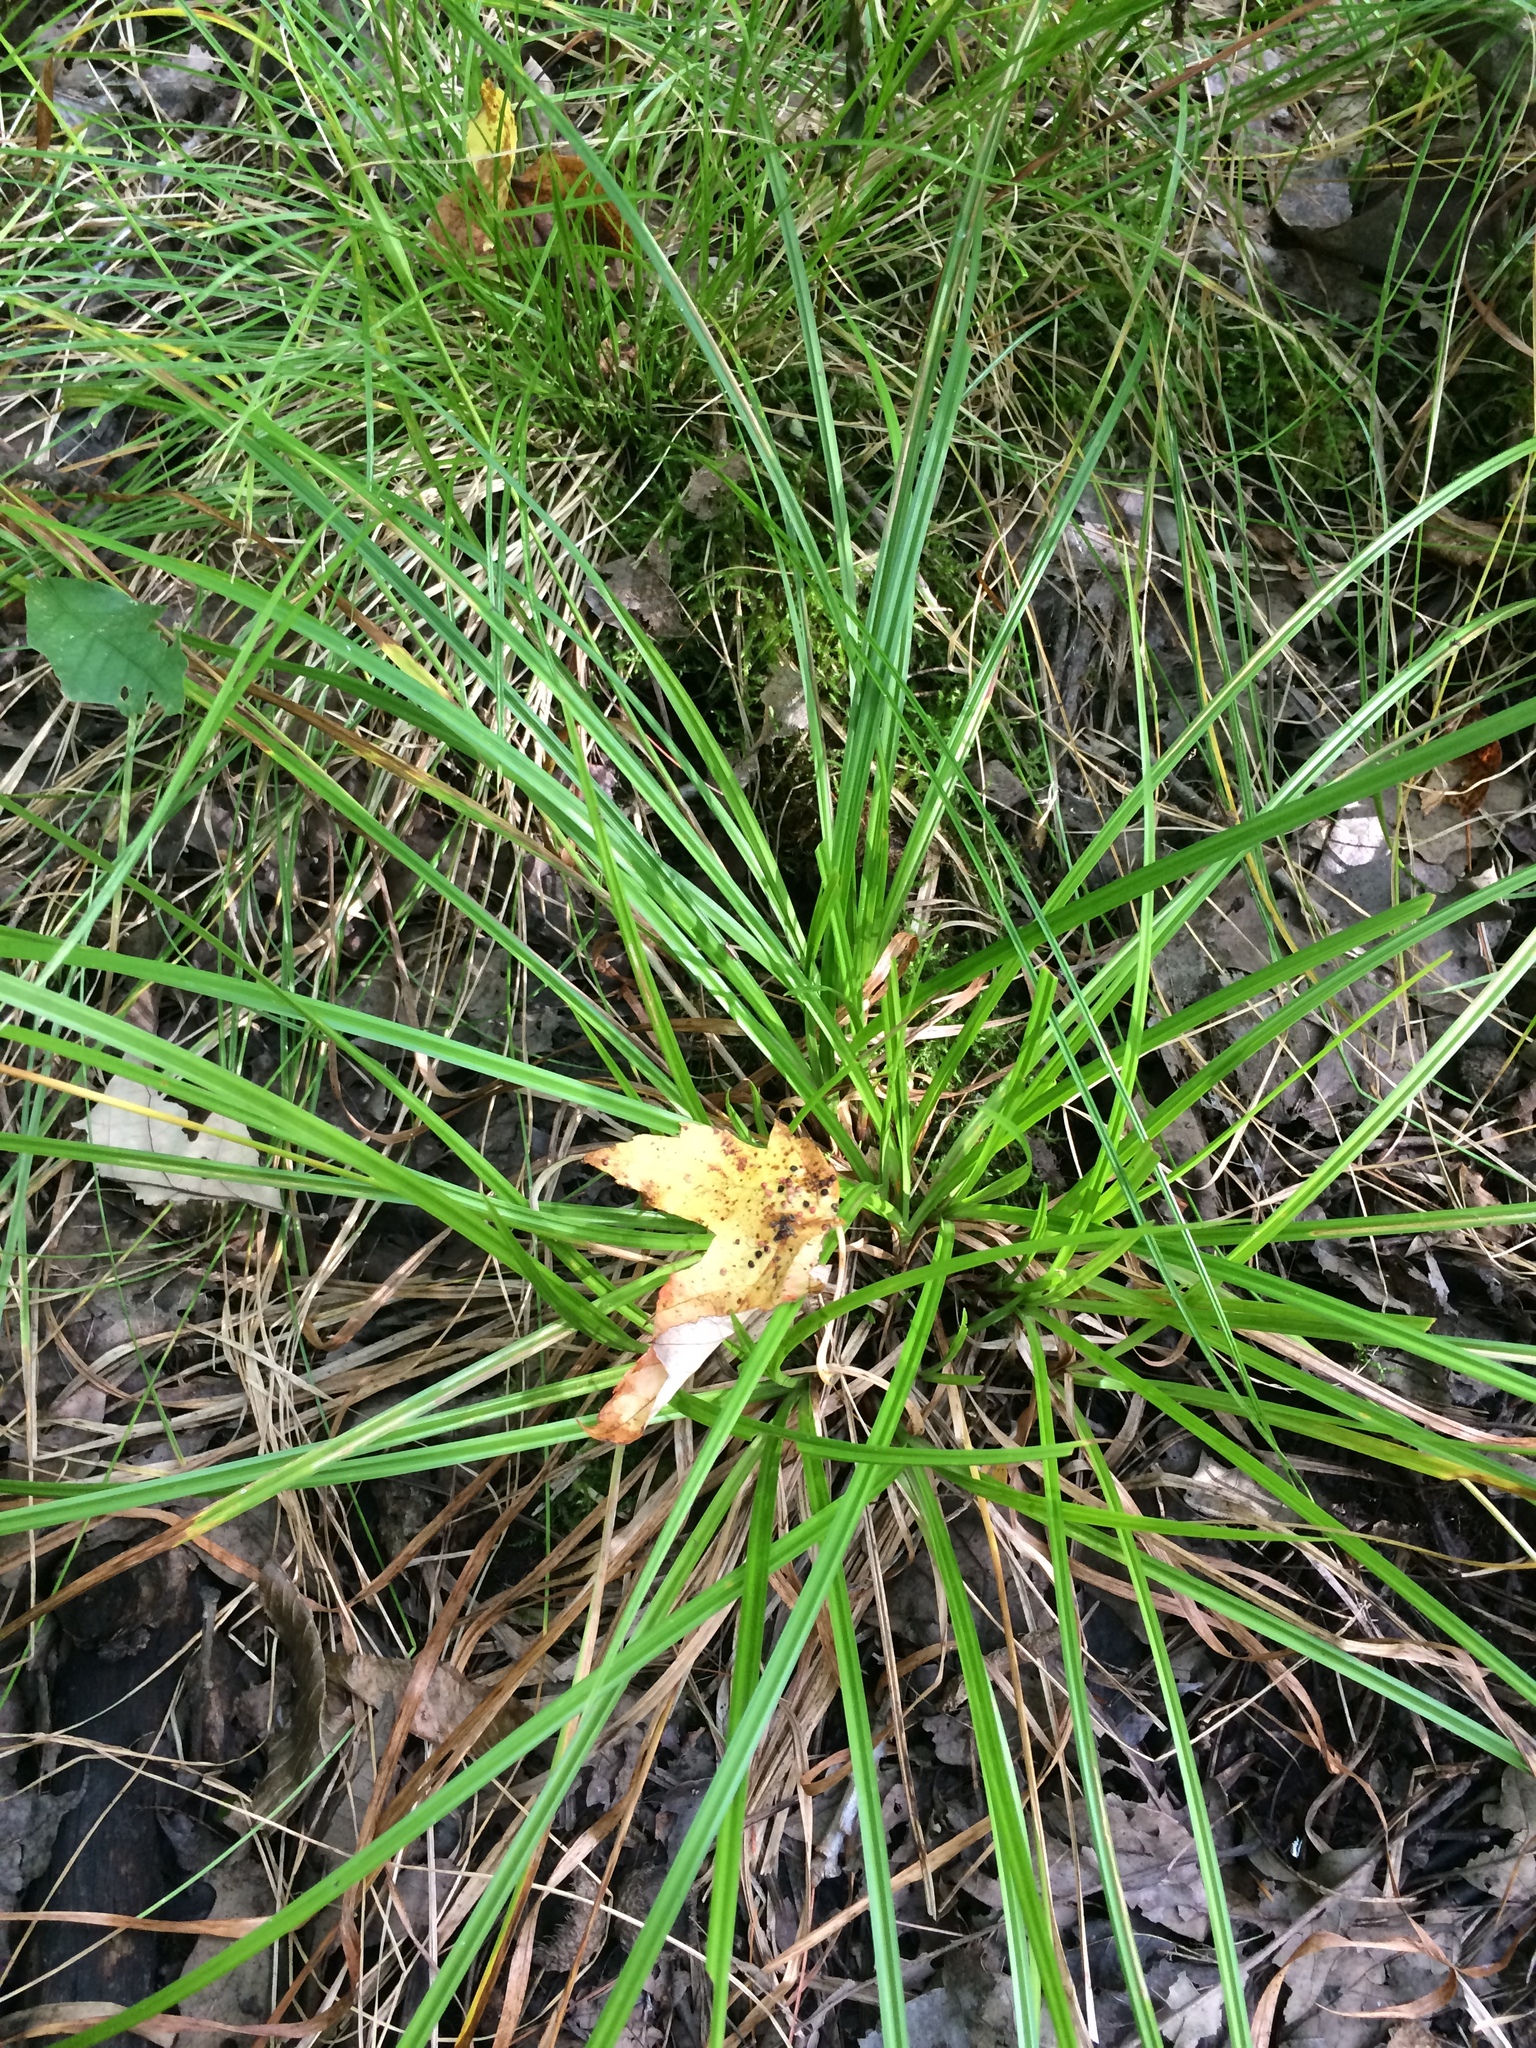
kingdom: Plantae
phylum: Tracheophyta
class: Liliopsida
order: Poales
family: Cyperaceae
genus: Carex
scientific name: Carex intumescens
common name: Greater bladder sedge
